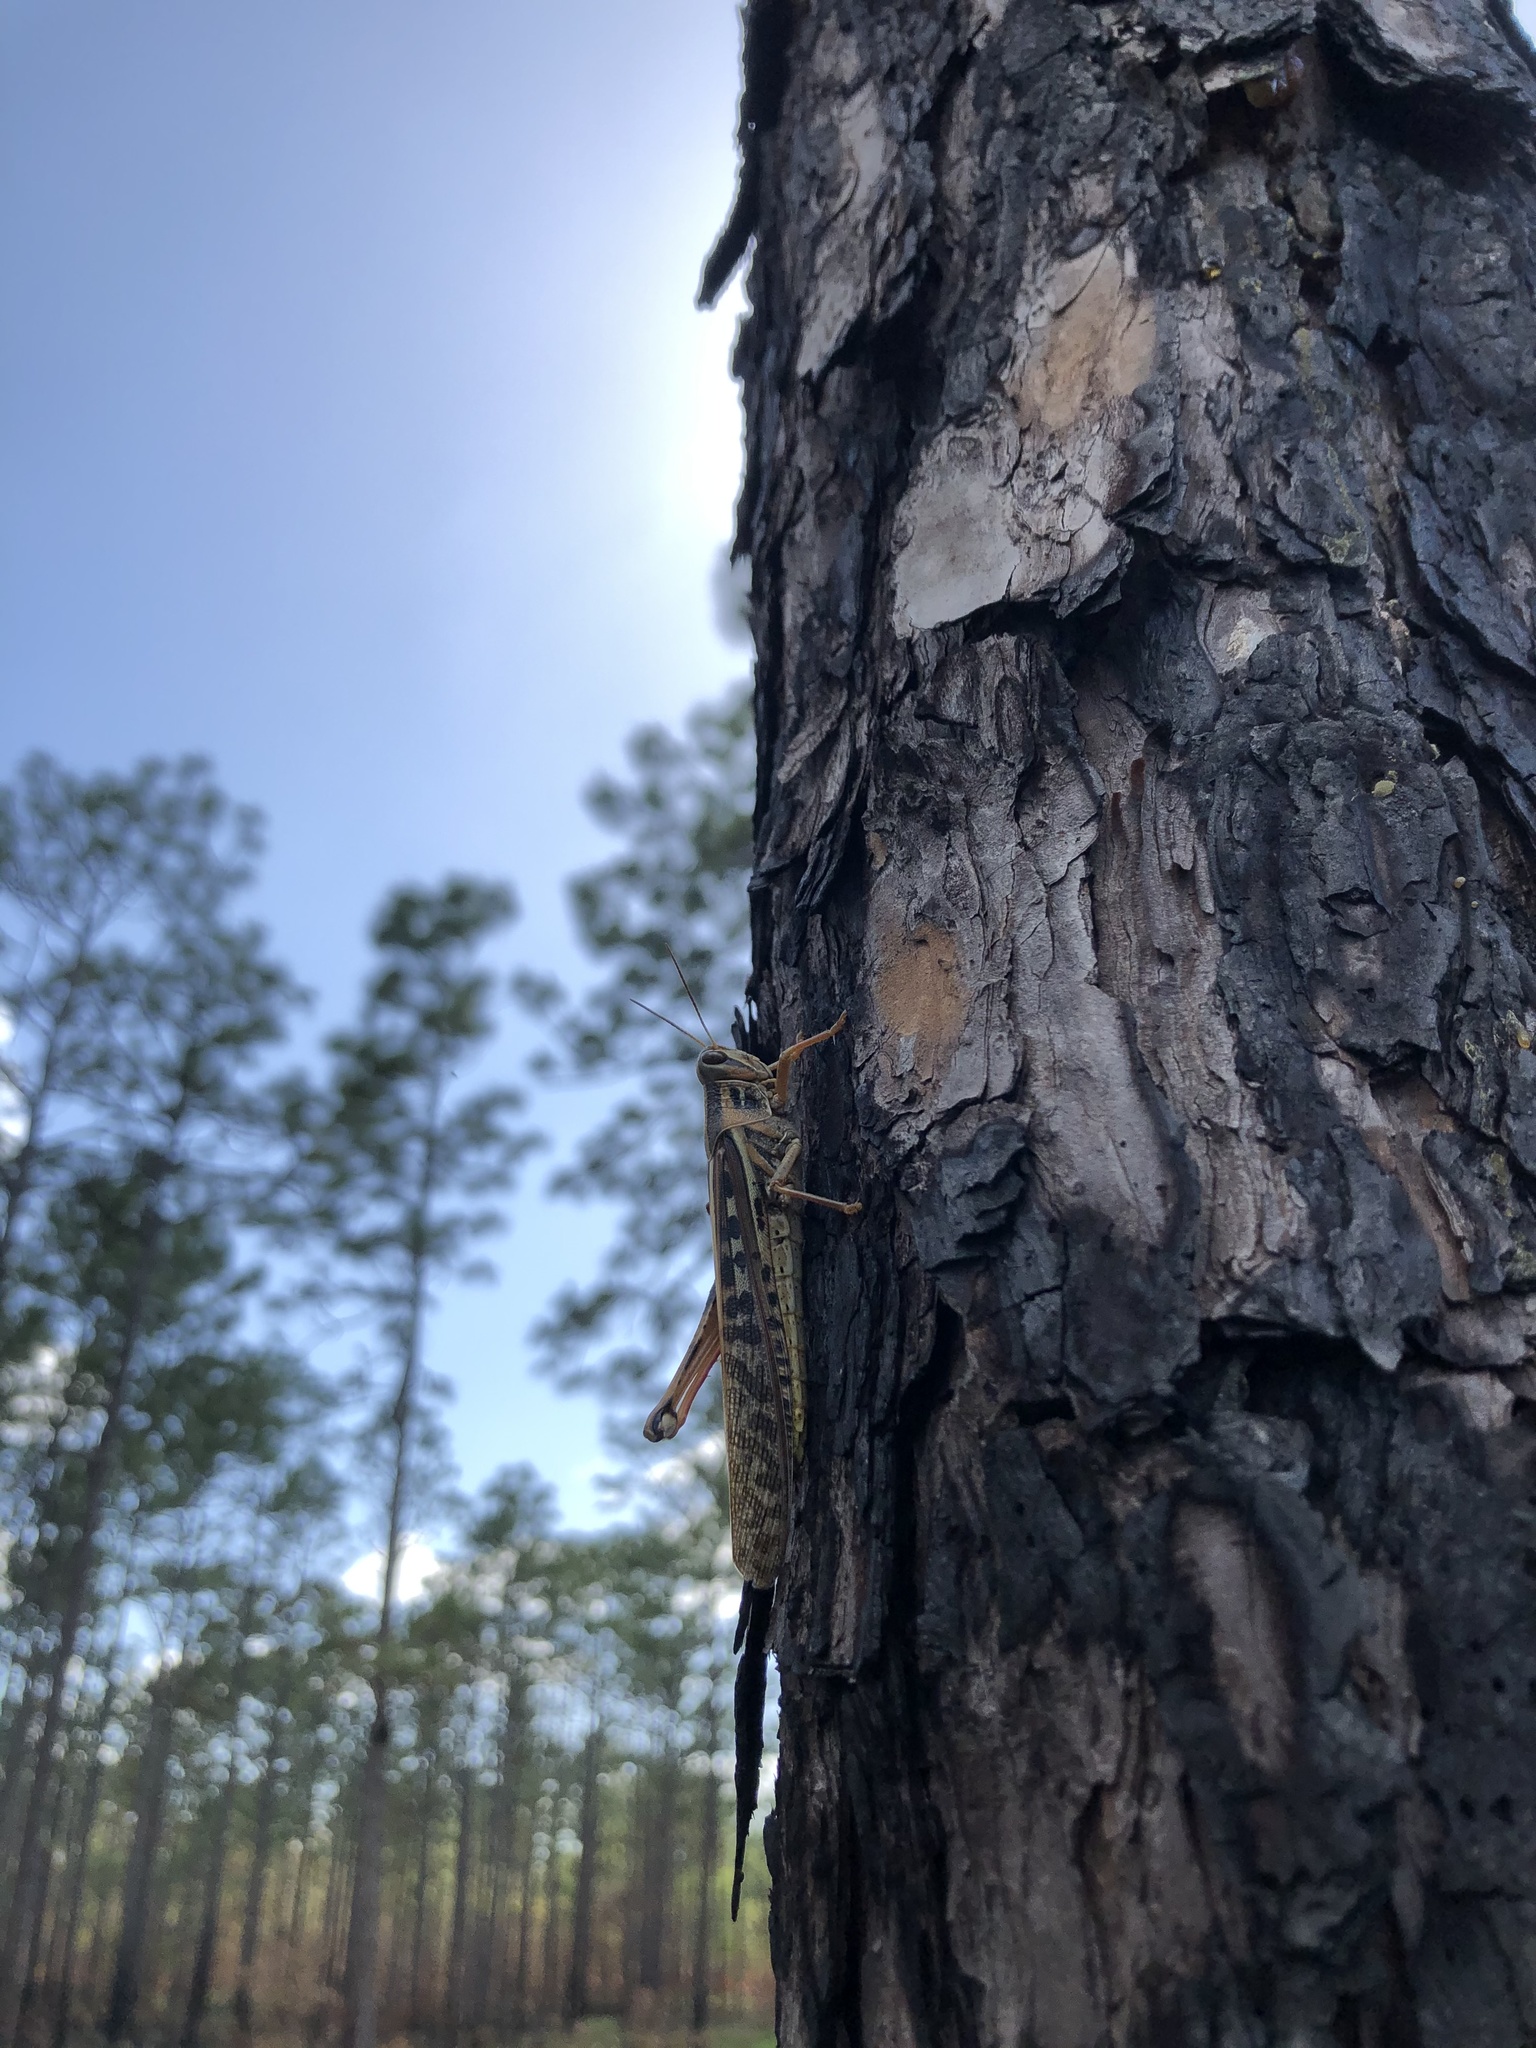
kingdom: Animalia
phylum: Arthropoda
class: Insecta
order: Orthoptera
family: Acrididae
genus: Schistocerca
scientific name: Schistocerca americana
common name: American bird locust
